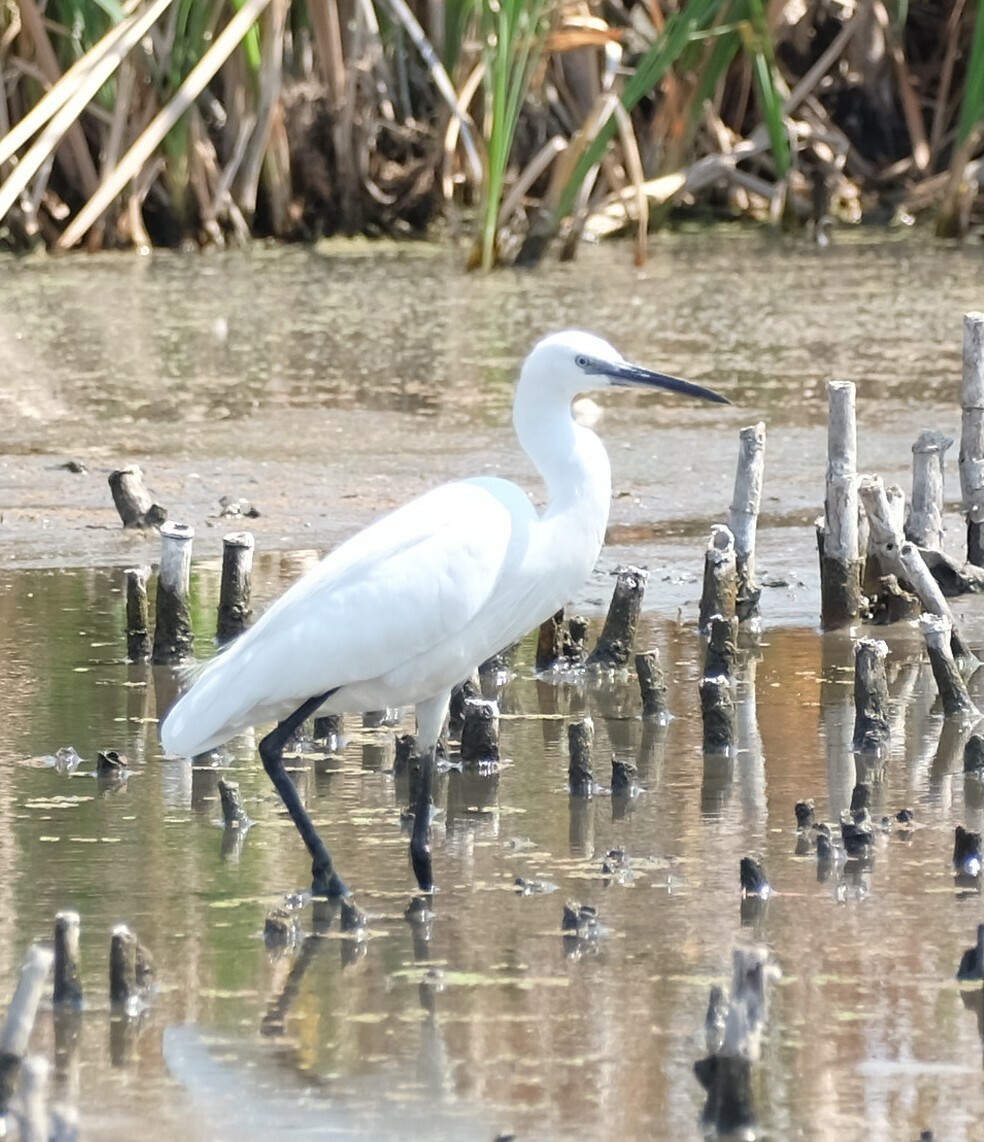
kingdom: Animalia
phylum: Chordata
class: Aves
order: Pelecaniformes
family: Ardeidae
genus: Egretta
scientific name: Egretta garzetta
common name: Little egret
